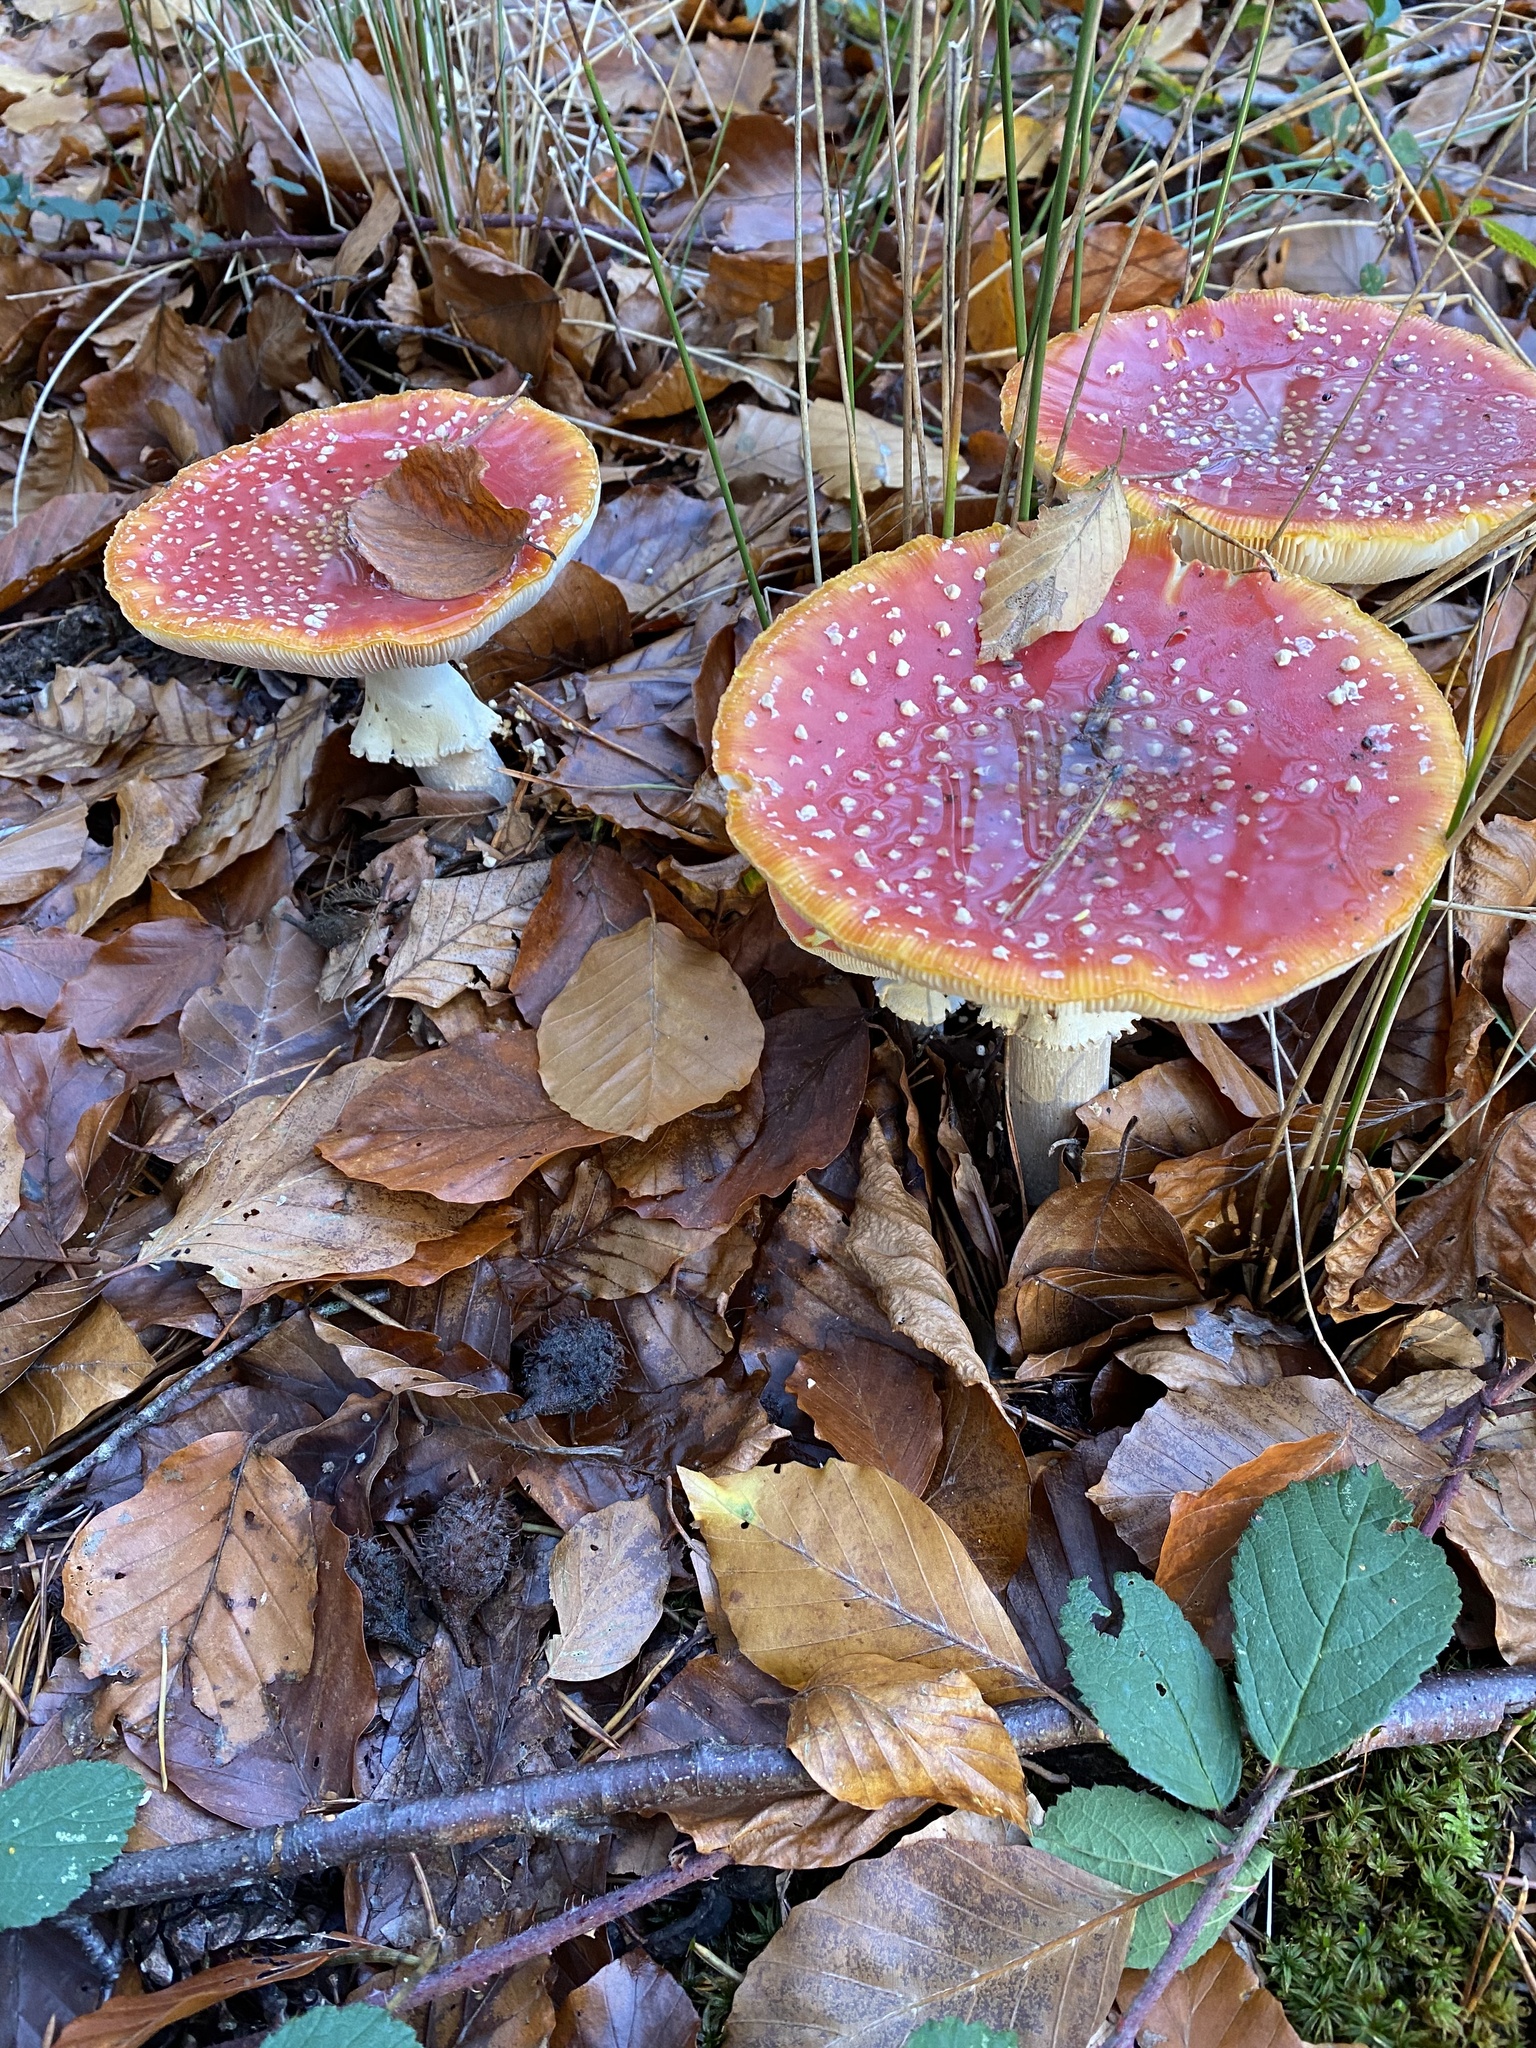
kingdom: Fungi
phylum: Basidiomycota
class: Agaricomycetes
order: Agaricales
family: Amanitaceae
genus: Amanita
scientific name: Amanita muscaria
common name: Fly agaric
